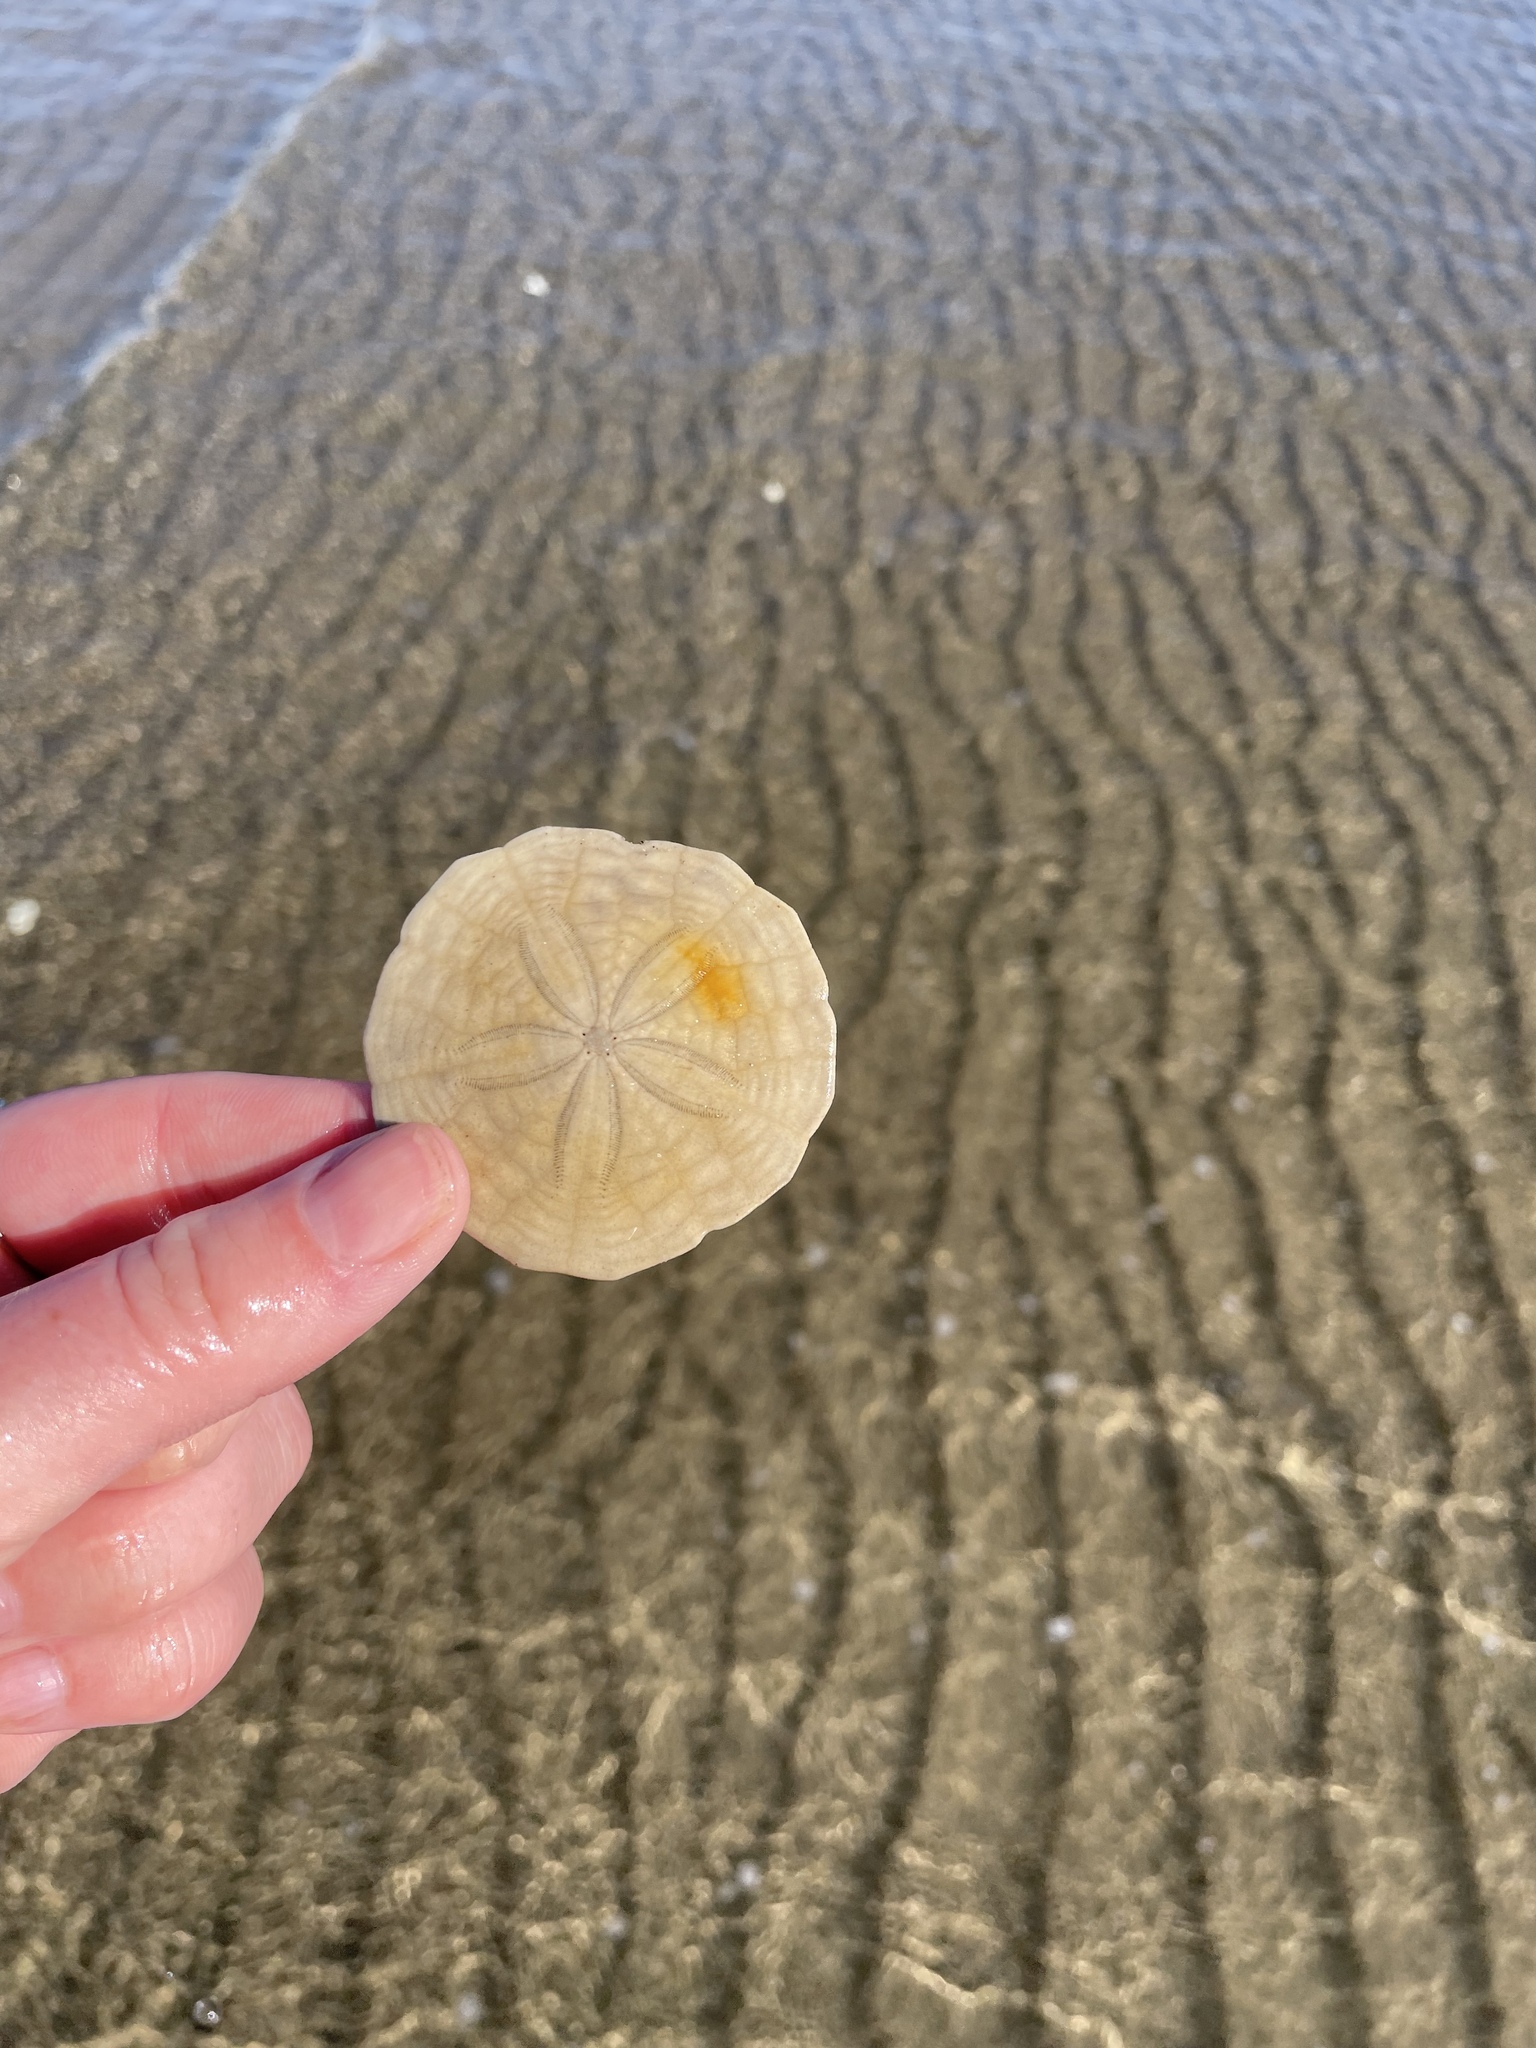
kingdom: Animalia
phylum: Echinodermata
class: Echinoidea
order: Echinolampadacea
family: Echinarachniidae
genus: Echinarachnius
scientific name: Echinarachnius parma
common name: Common sand dollar
